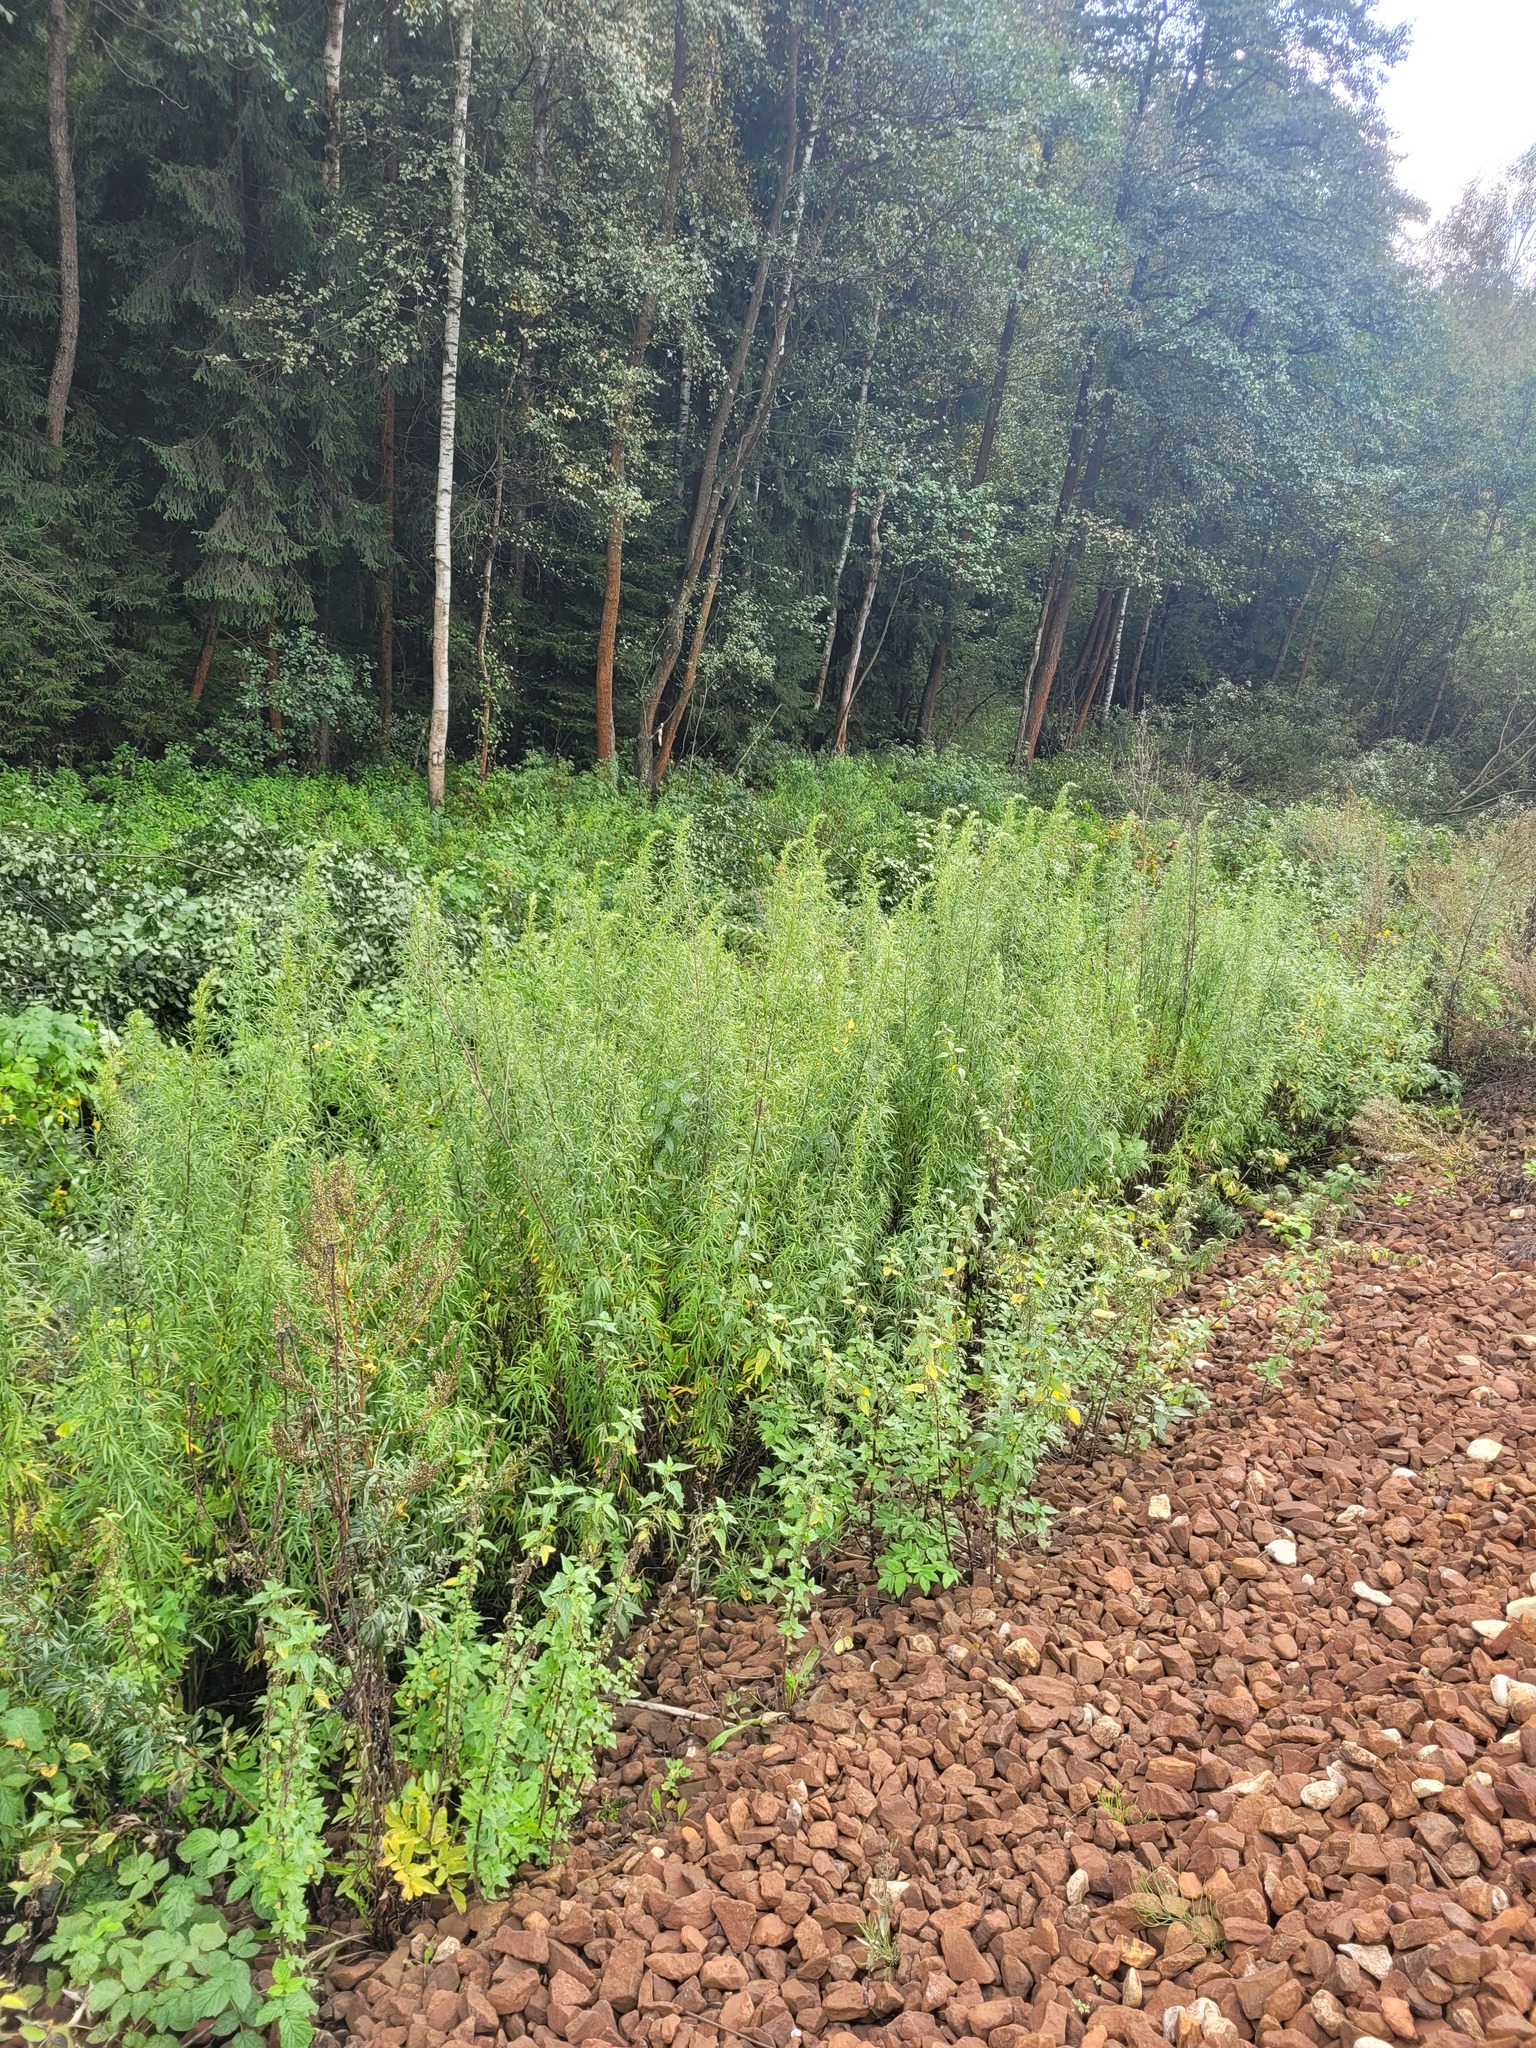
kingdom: Plantae
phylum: Tracheophyta
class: Magnoliopsida
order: Asterales
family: Asteraceae
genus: Artemisia
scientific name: Artemisia umbrosa
